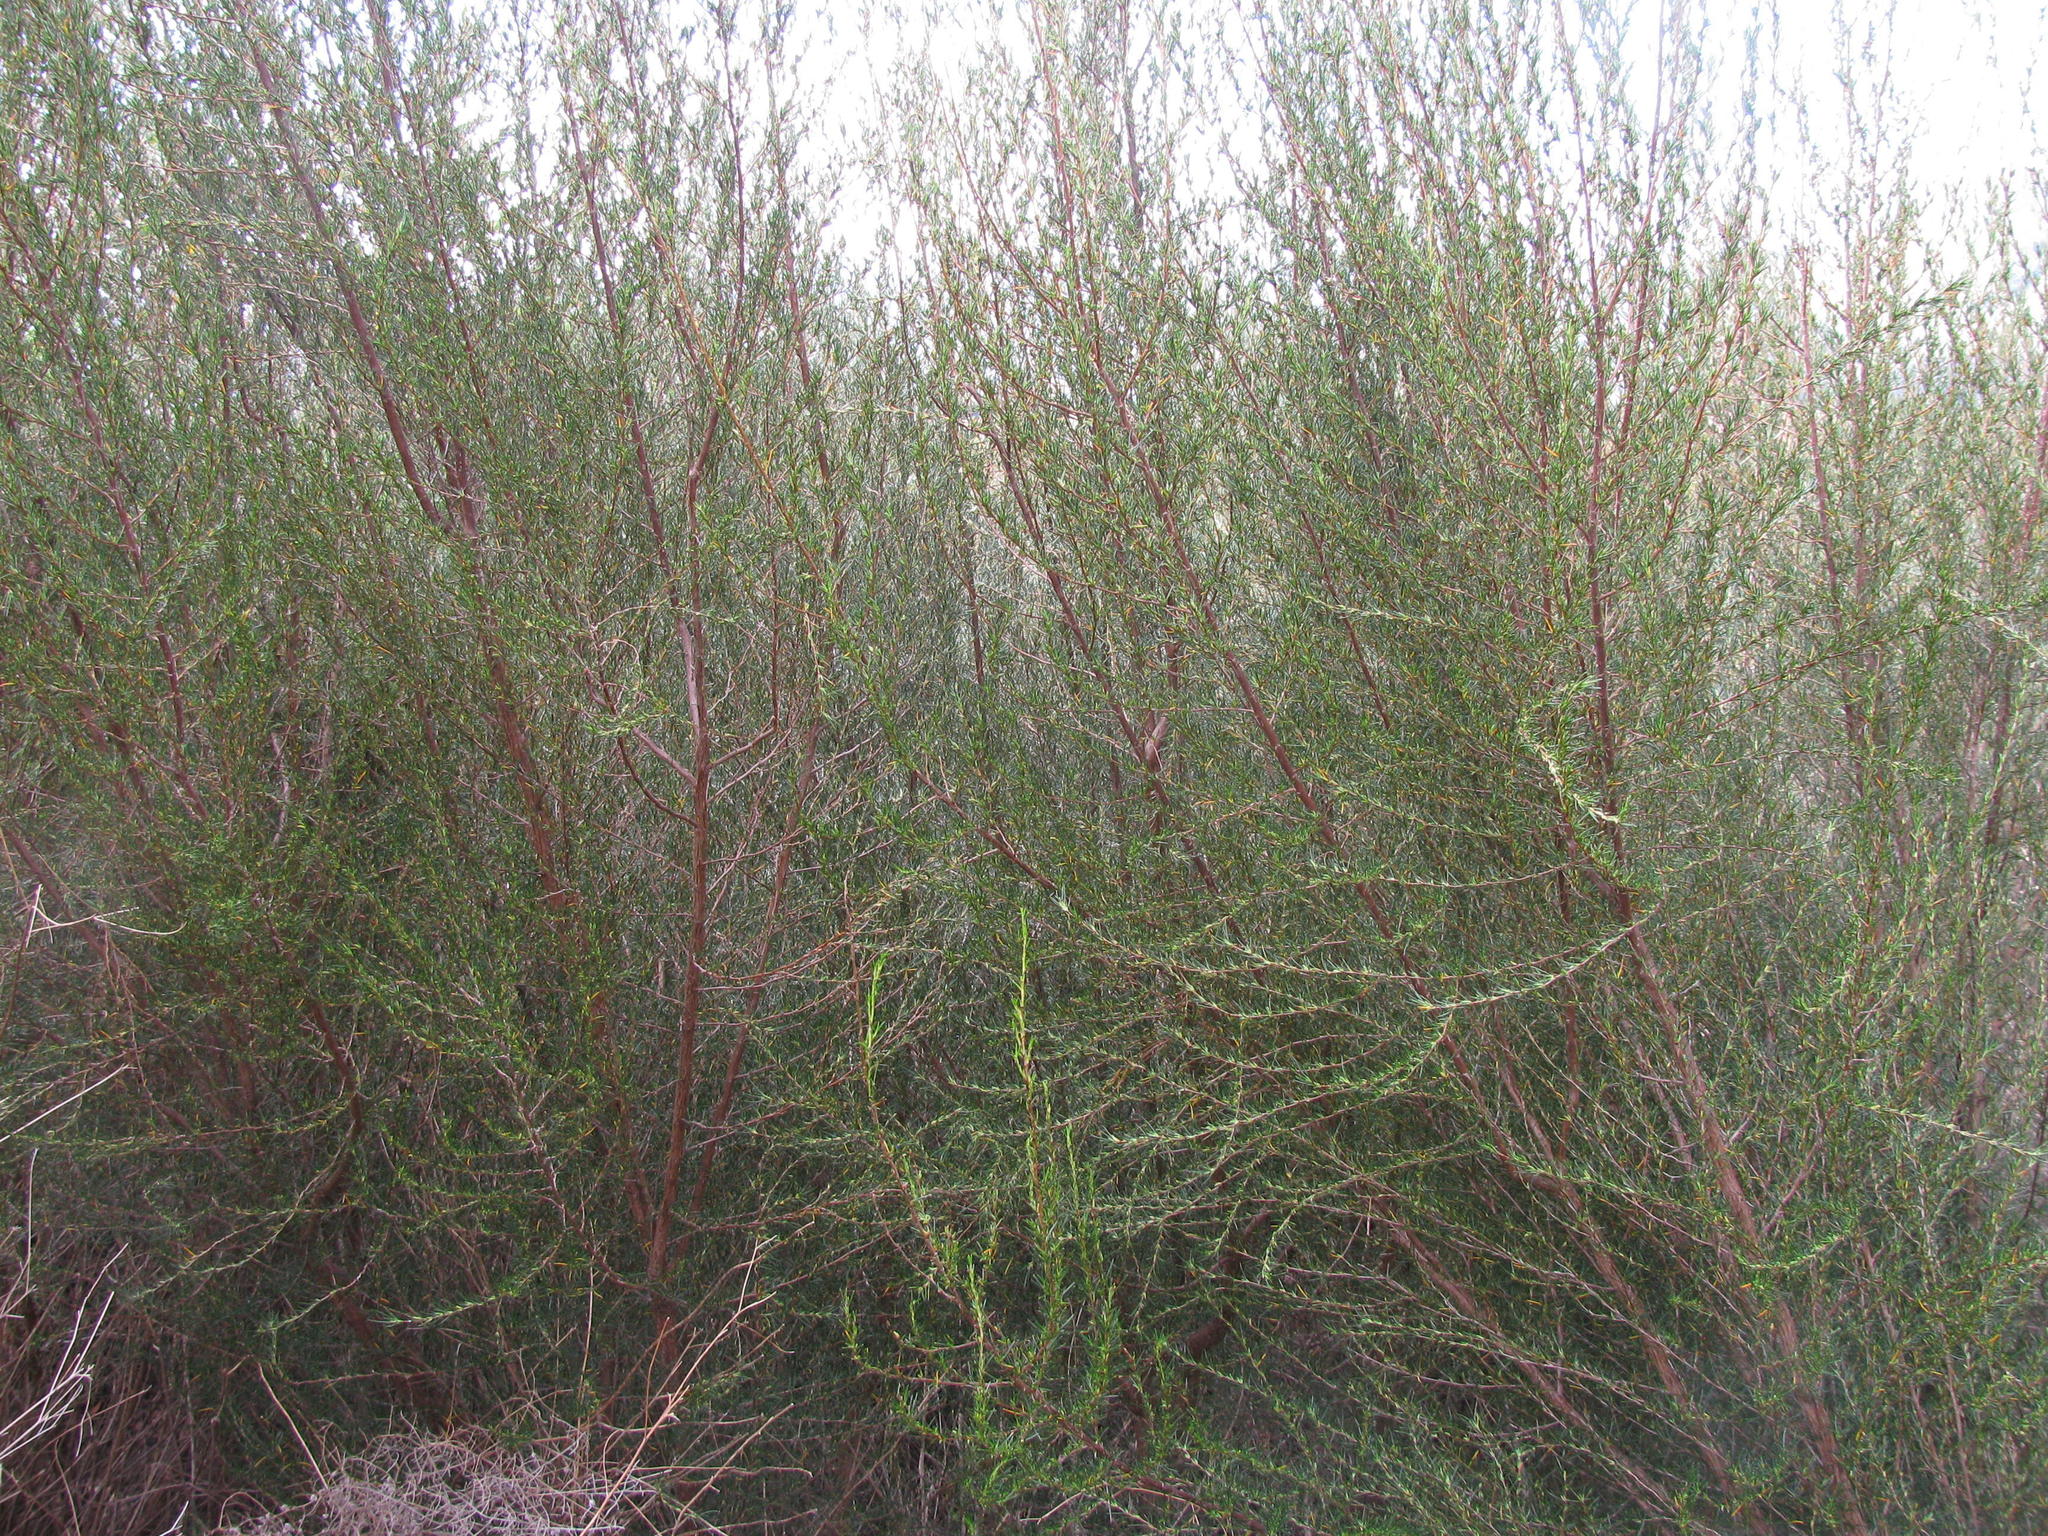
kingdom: Plantae
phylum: Tracheophyta
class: Magnoliopsida
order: Rosales
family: Rosaceae
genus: Cliffortia
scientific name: Cliffortia erectisepala
